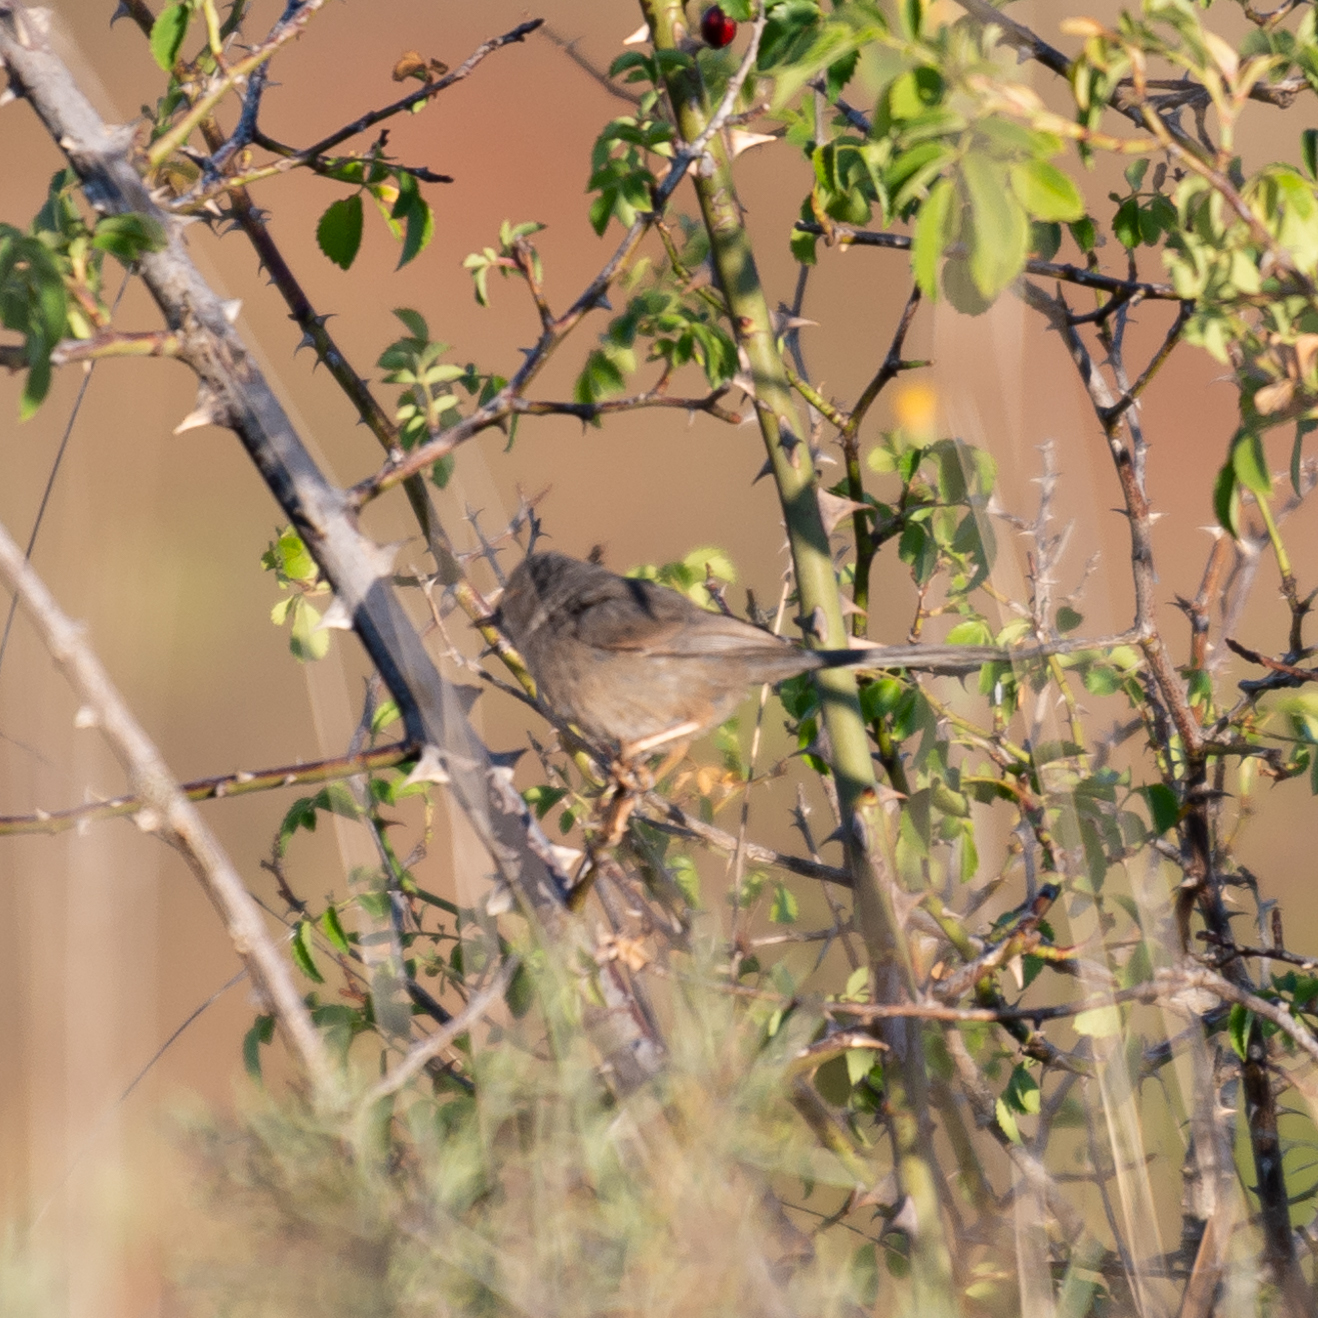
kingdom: Animalia
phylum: Chordata
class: Aves
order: Passeriformes
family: Sylviidae
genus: Sylvia
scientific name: Sylvia undata
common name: Dartford warbler
